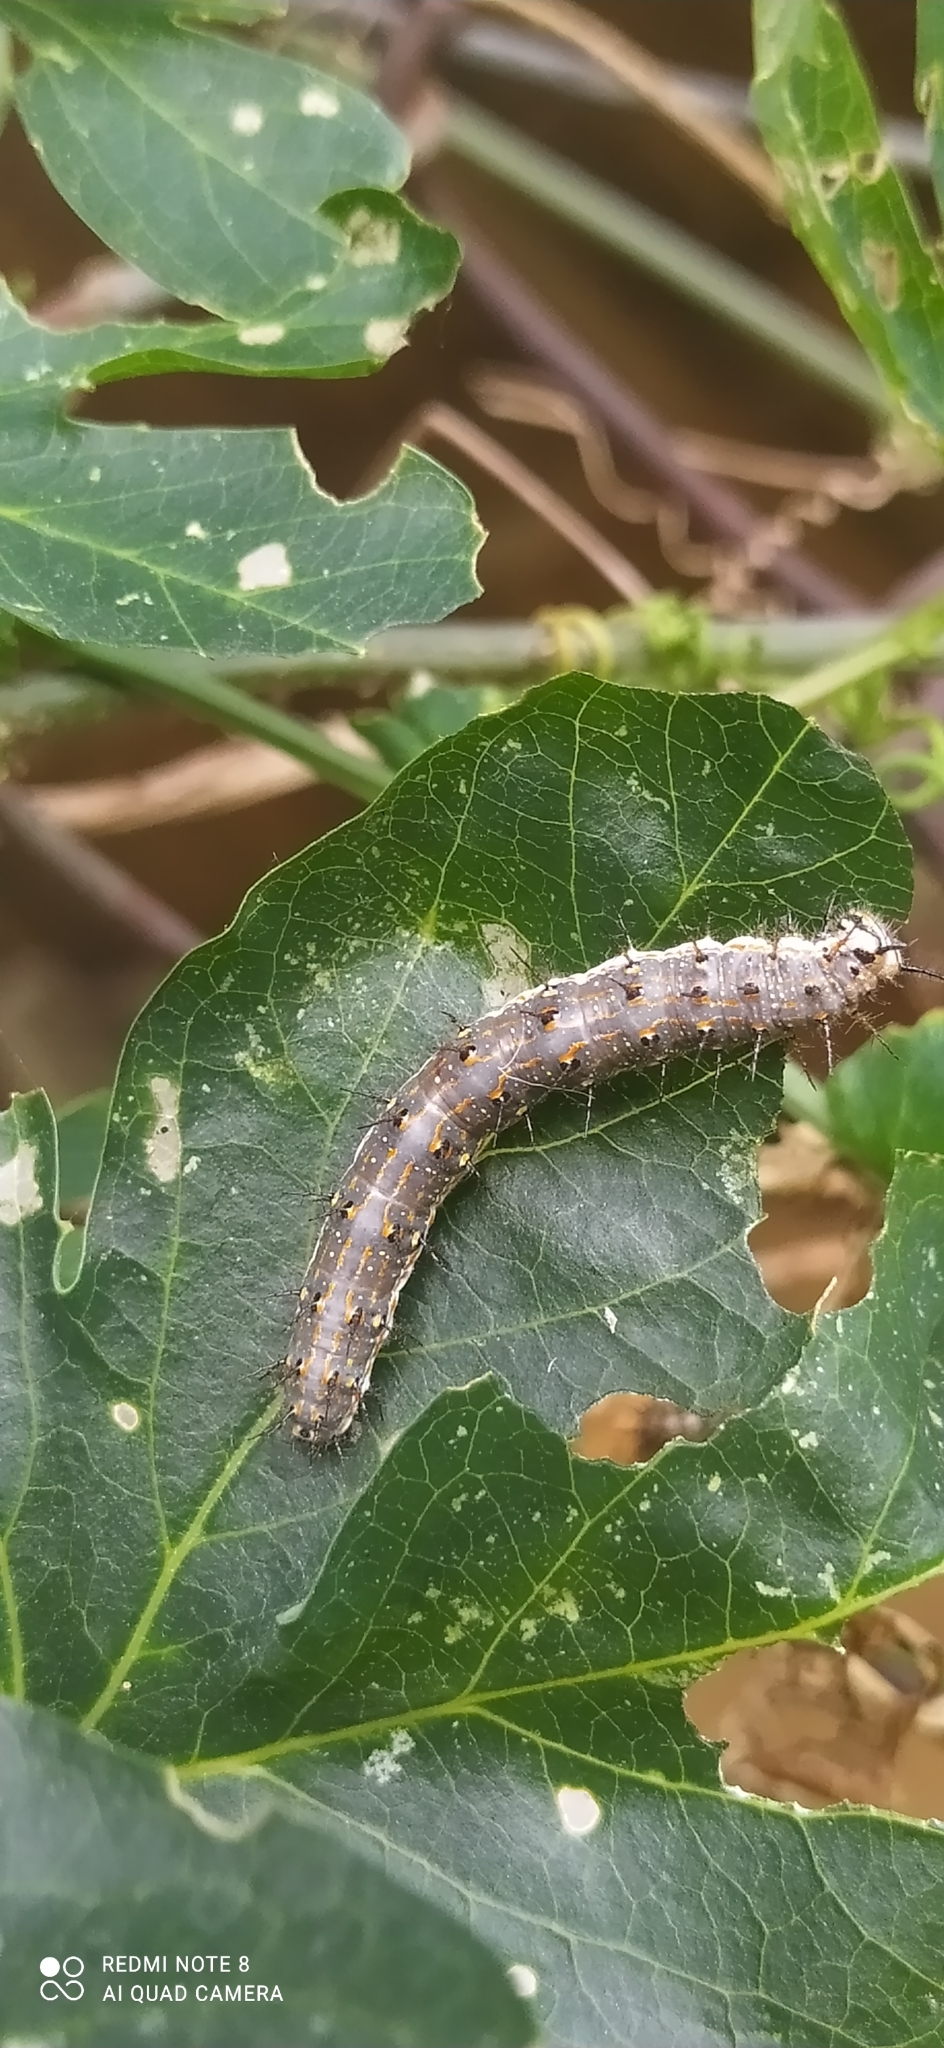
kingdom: Animalia
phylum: Arthropoda
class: Insecta
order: Lepidoptera
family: Nymphalidae
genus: Dione
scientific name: Dione vanillae
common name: Gulf fritillary
